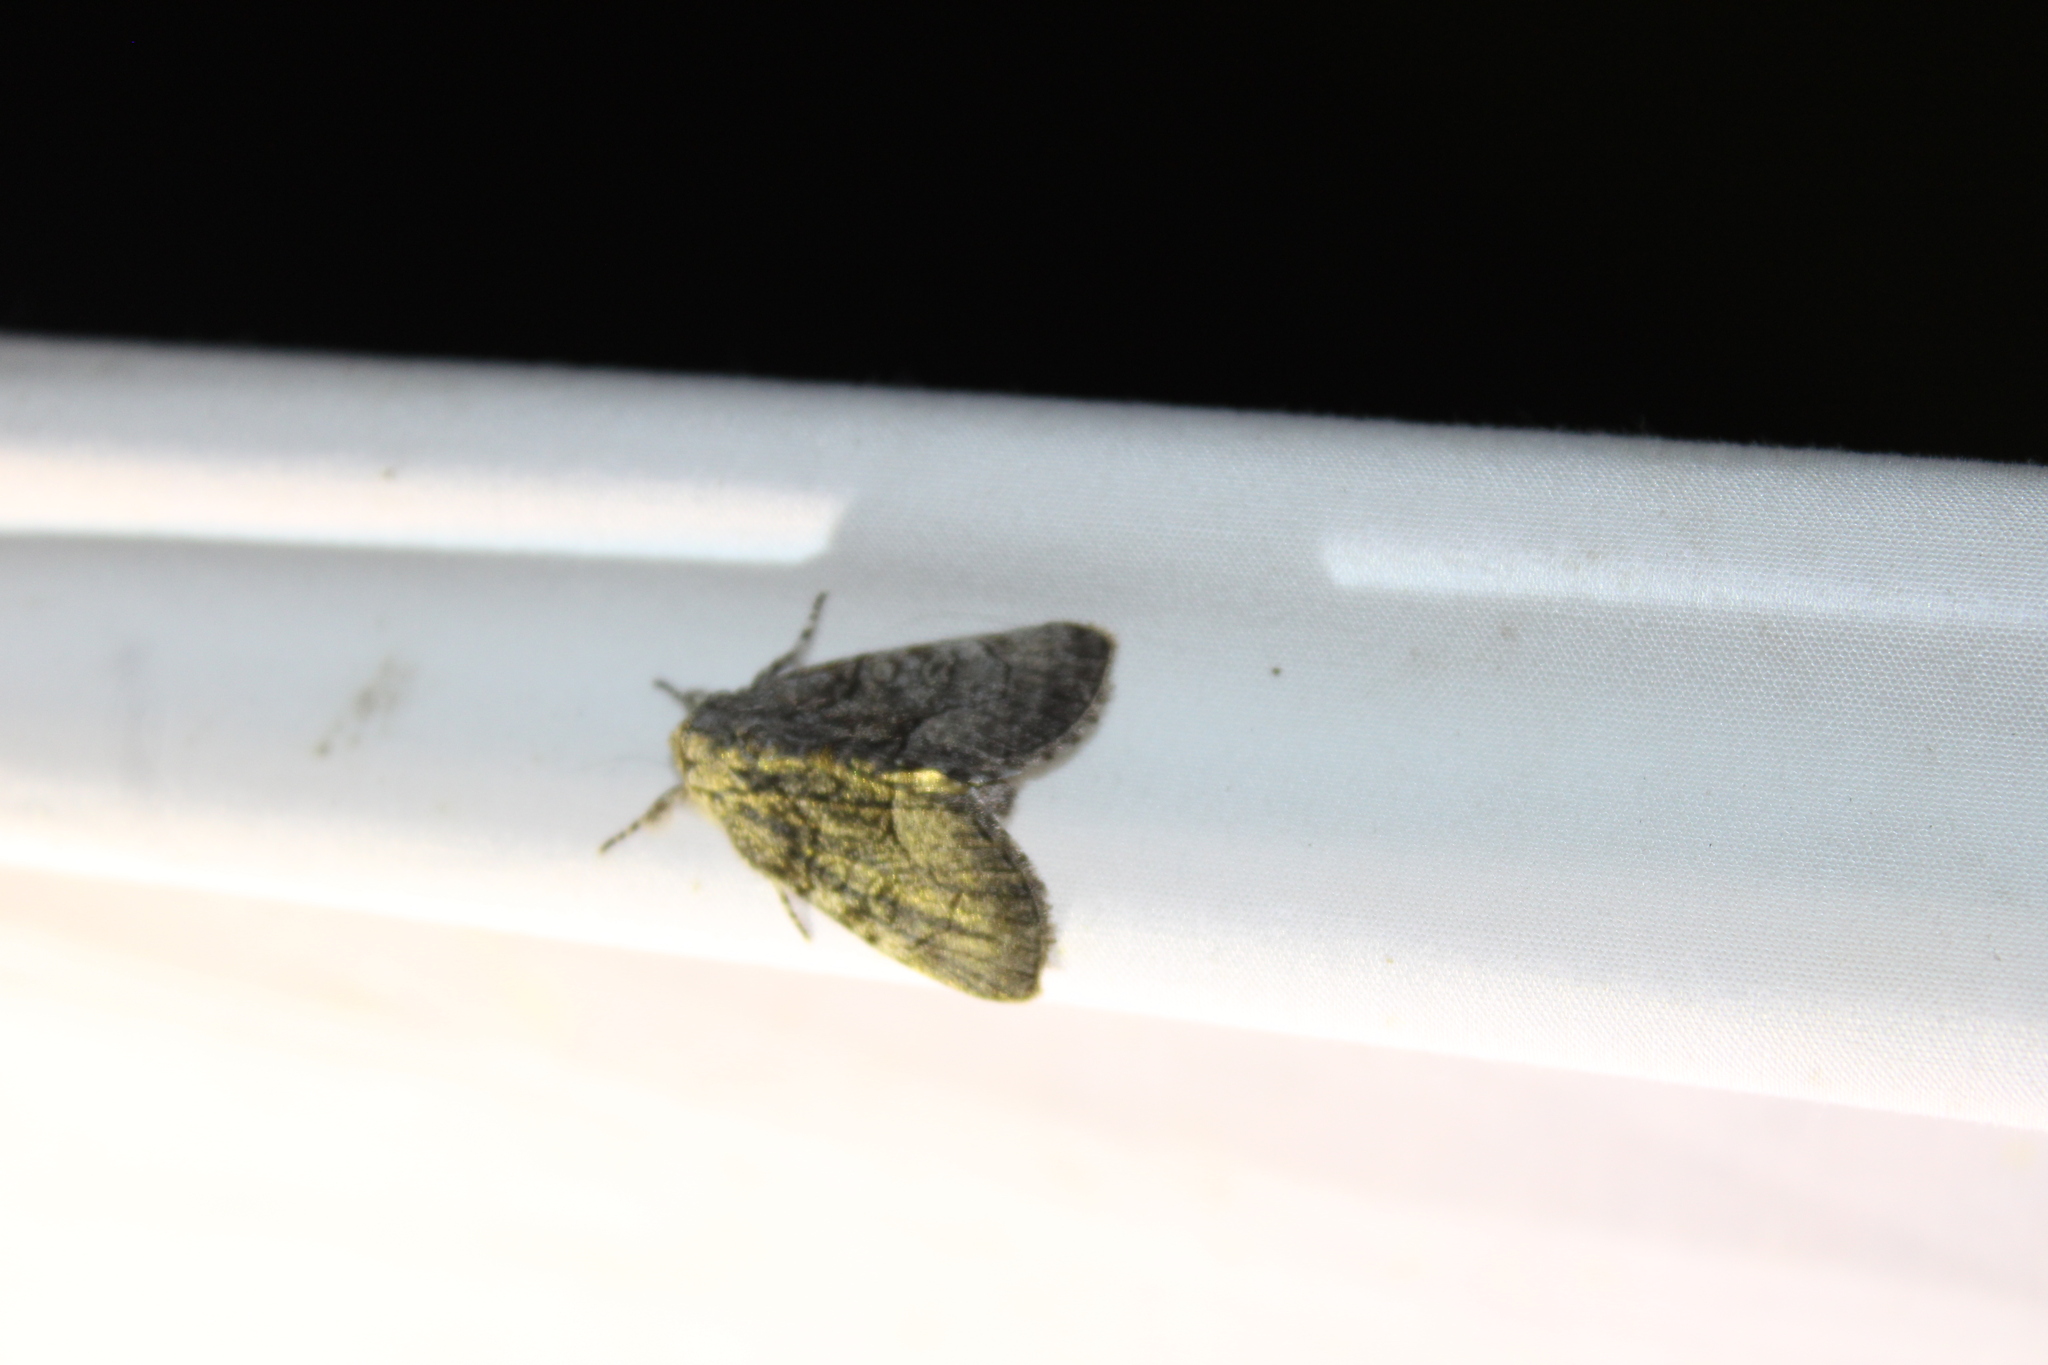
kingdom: Animalia
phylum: Arthropoda
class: Insecta
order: Lepidoptera
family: Noctuidae
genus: Raphia
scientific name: Raphia frater
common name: Brother
